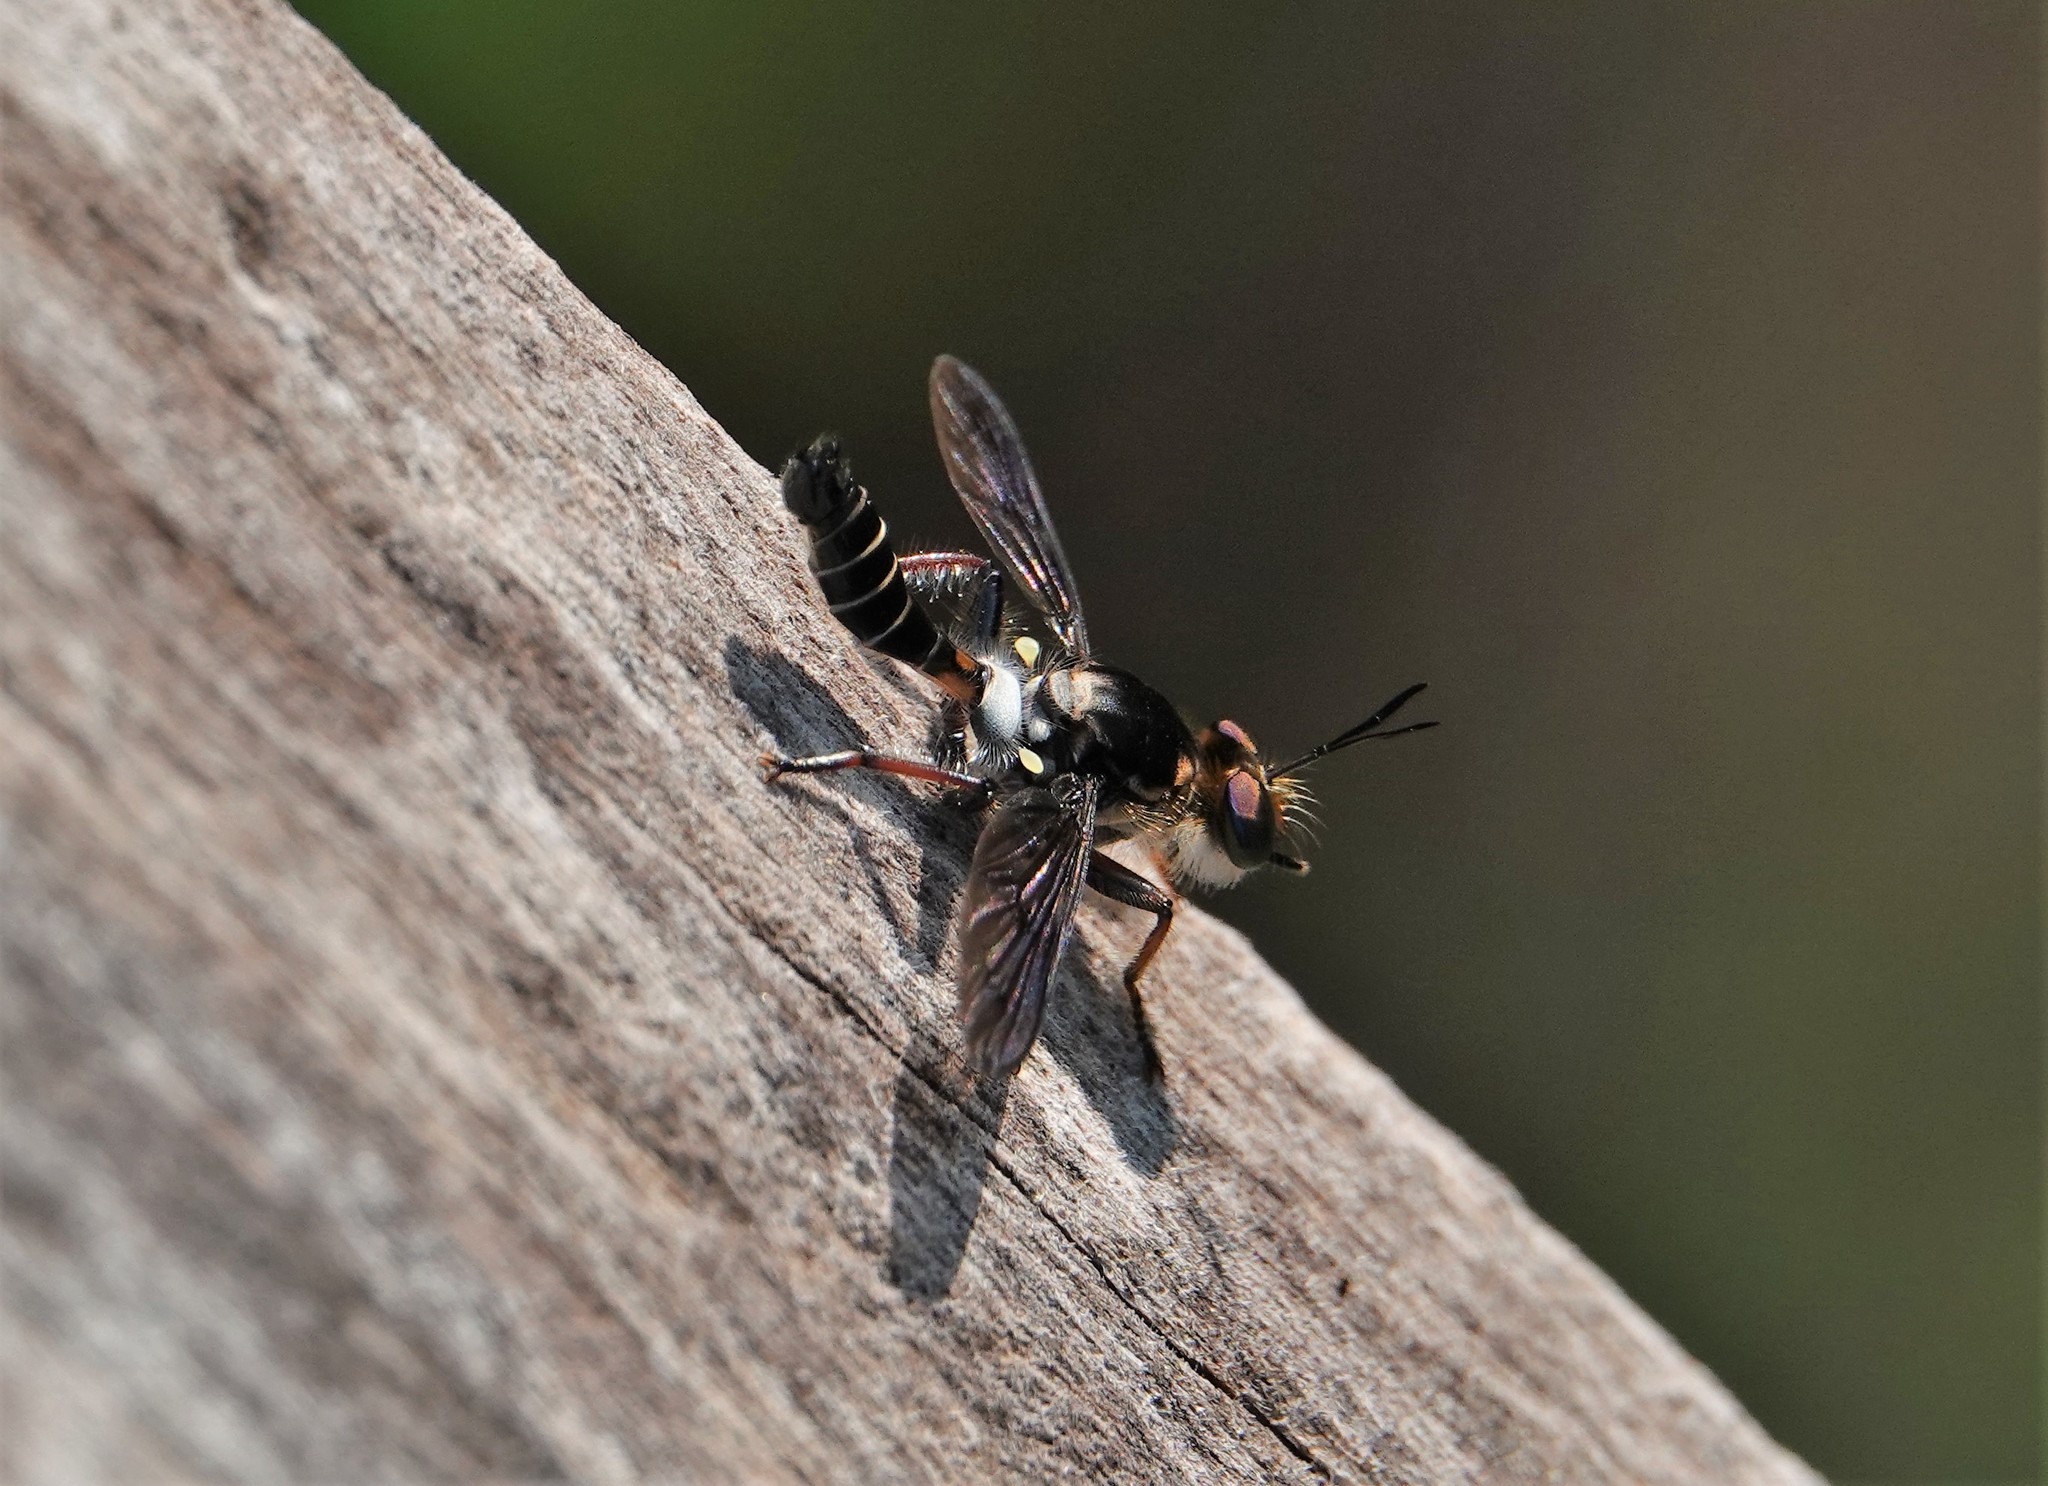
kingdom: Animalia
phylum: Arthropoda
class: Insecta
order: Diptera
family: Asilidae
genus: Rhopalogaster
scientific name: Rhopalogaster araujoi
